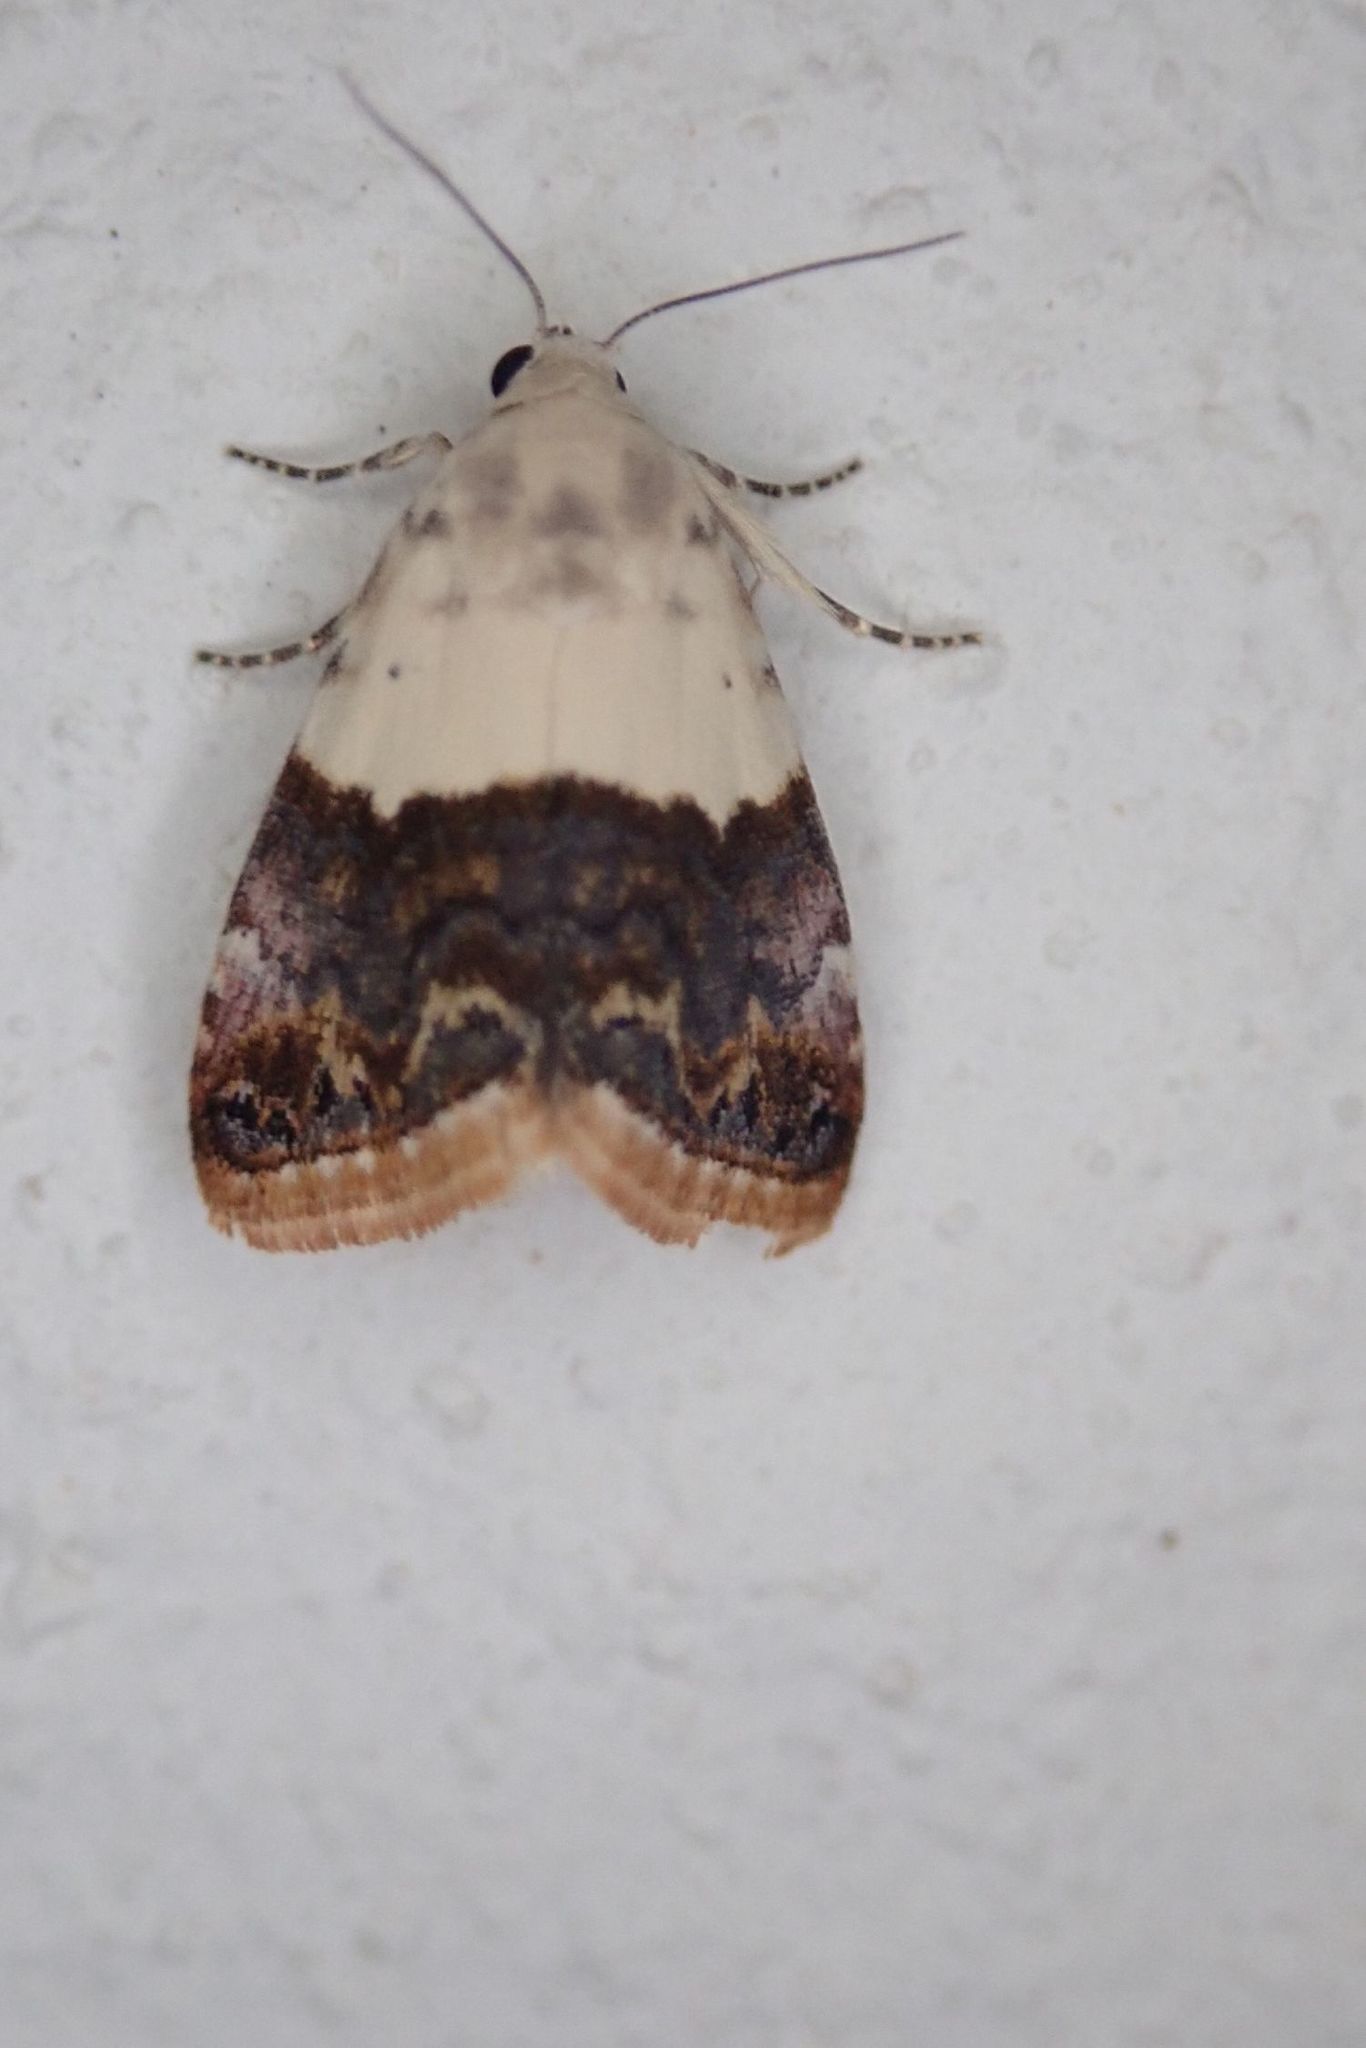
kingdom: Animalia
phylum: Arthropoda
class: Insecta
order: Lepidoptera
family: Noctuidae
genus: Eublemma
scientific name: Eublemma seminivea
